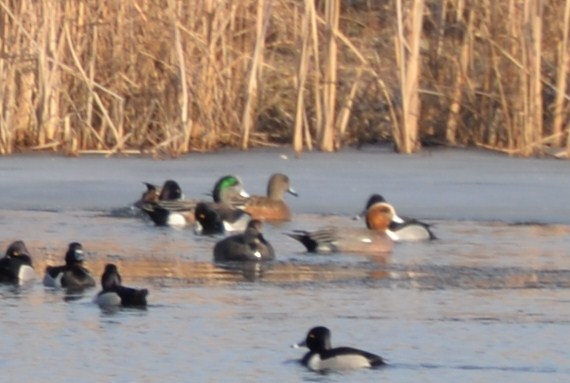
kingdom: Animalia
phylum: Chordata
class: Aves
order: Anseriformes
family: Anatidae
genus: Mareca
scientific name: Mareca
